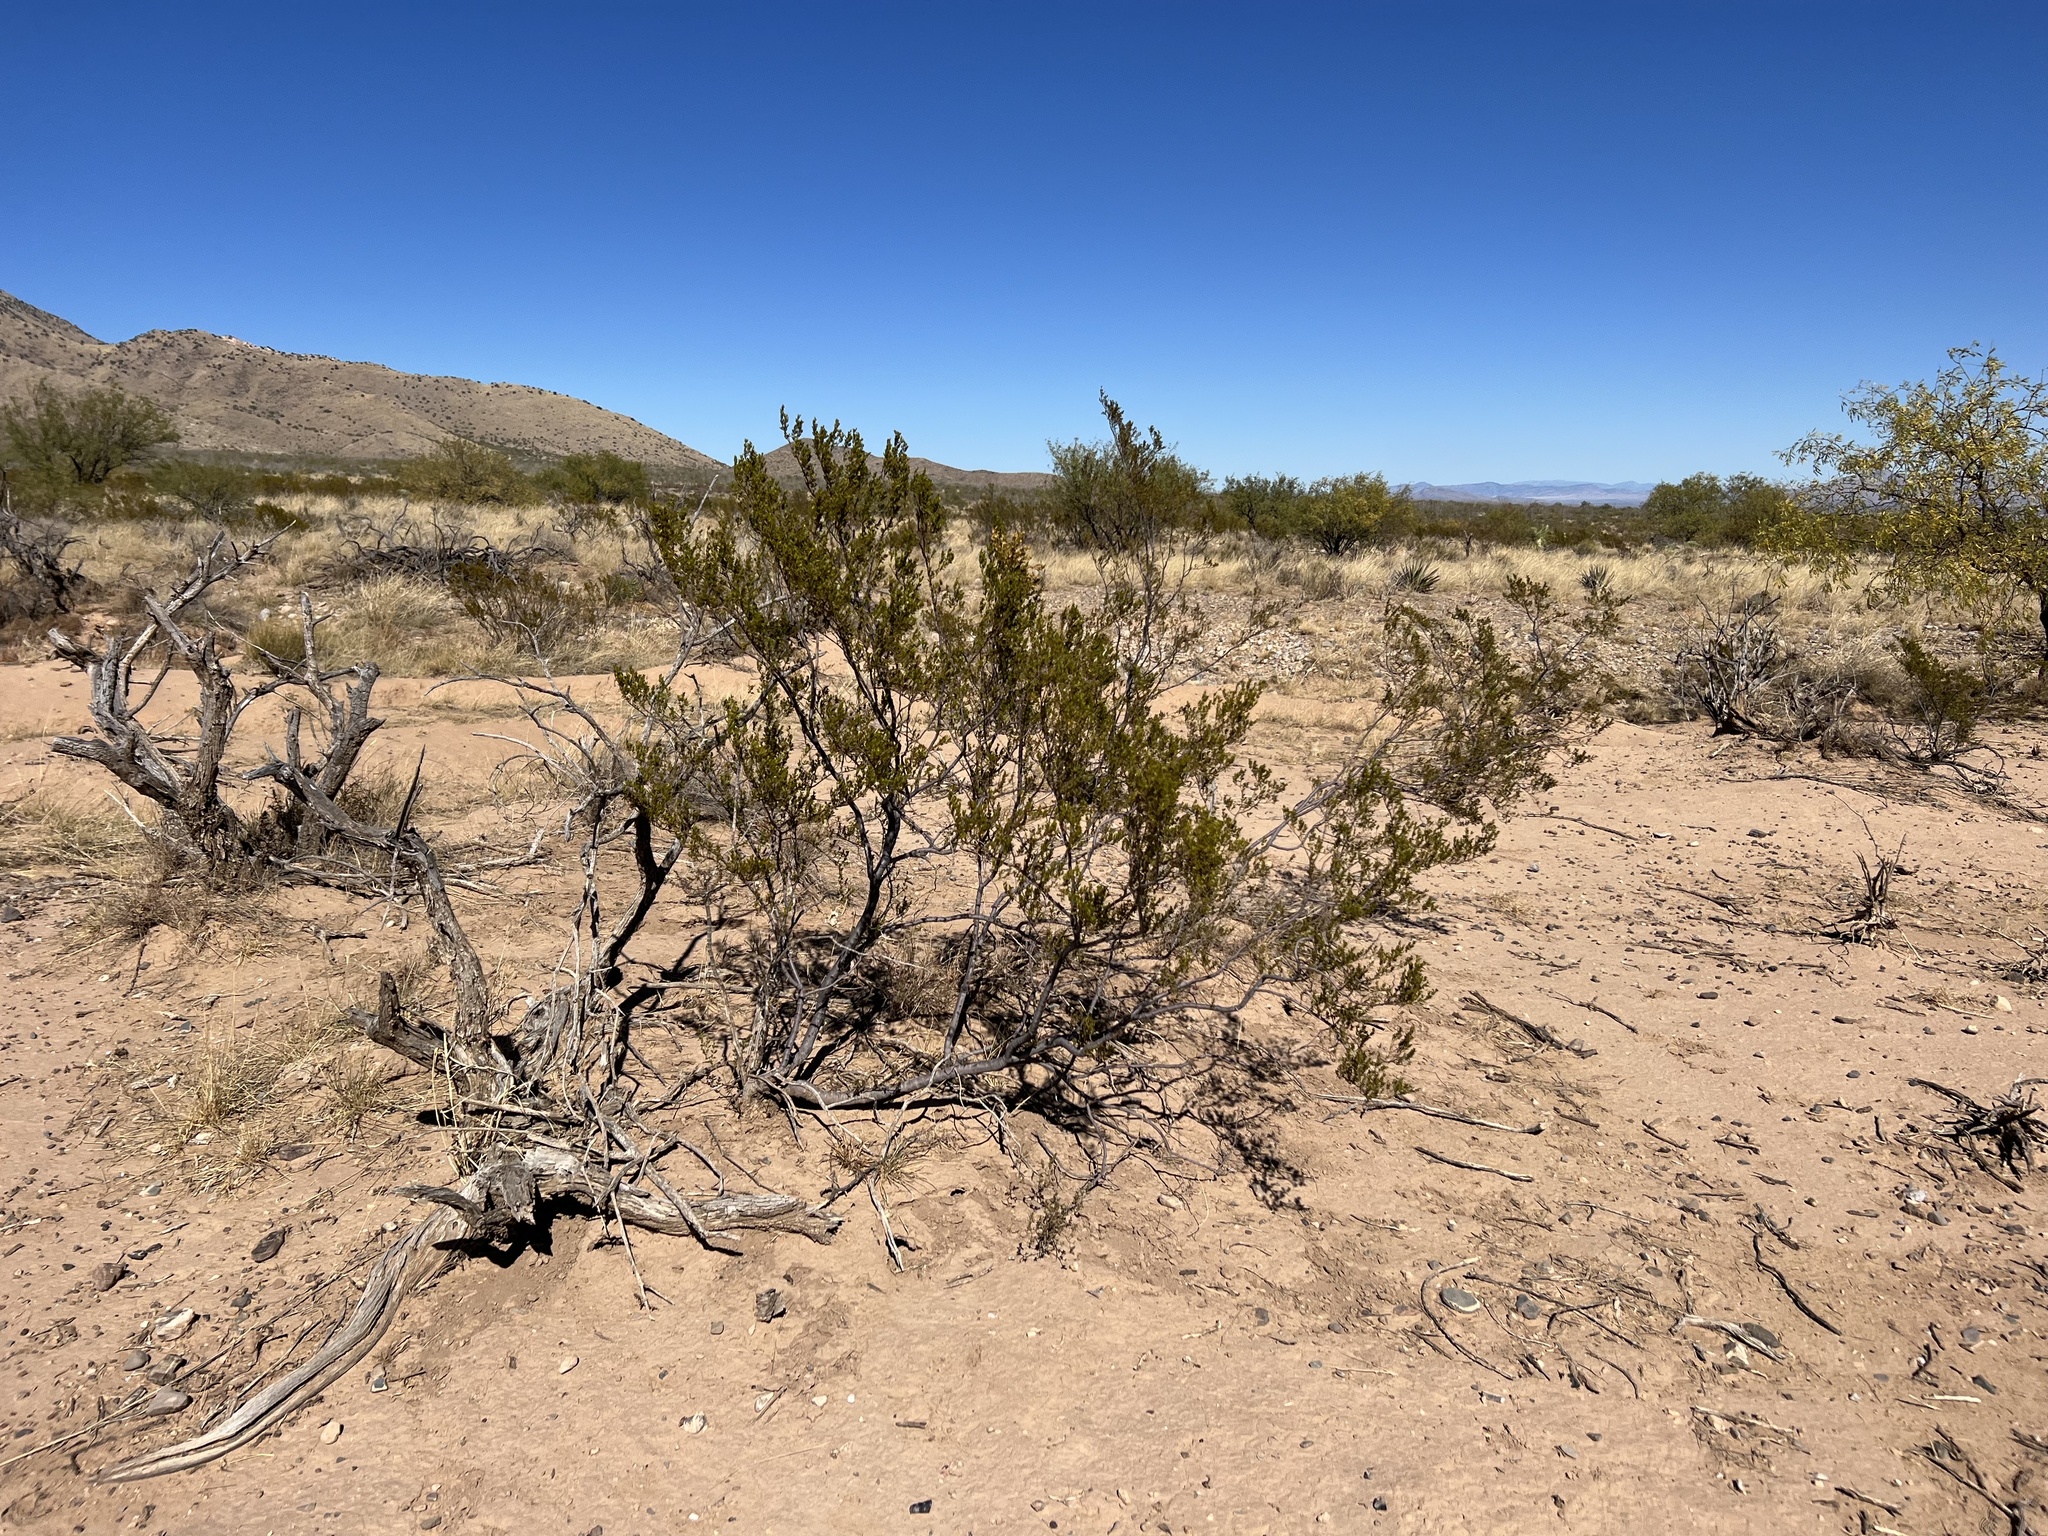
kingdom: Plantae
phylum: Tracheophyta
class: Magnoliopsida
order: Zygophyllales
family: Zygophyllaceae
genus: Larrea
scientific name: Larrea tridentata
